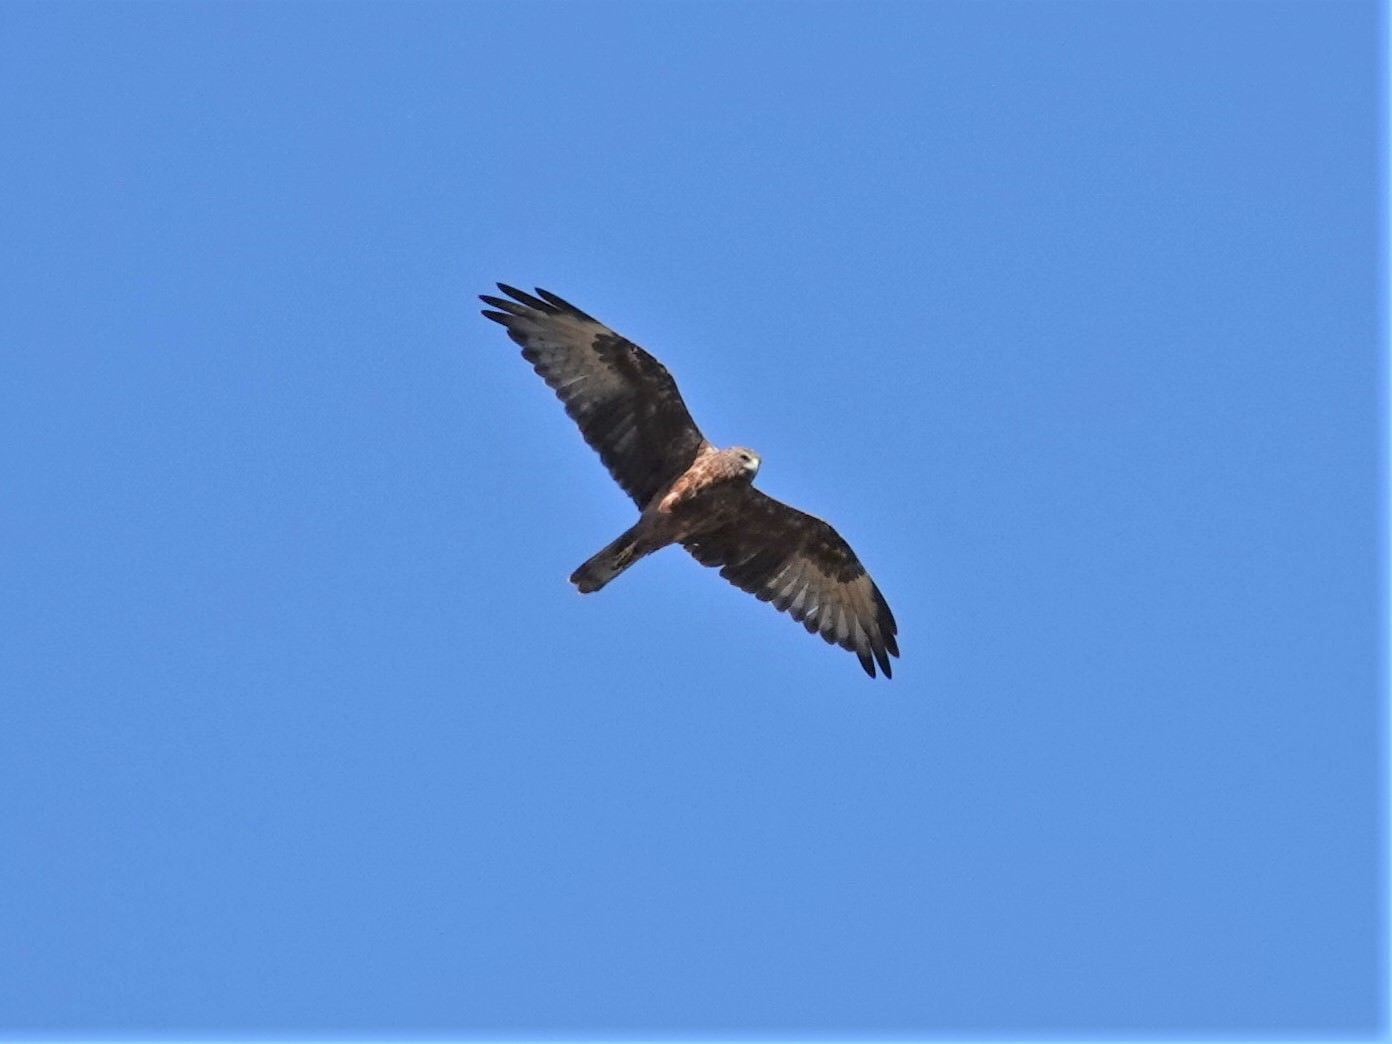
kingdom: Animalia
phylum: Chordata
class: Aves
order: Accipitriformes
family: Accipitridae
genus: Circus
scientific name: Circus approximans
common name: Swamp harrier
